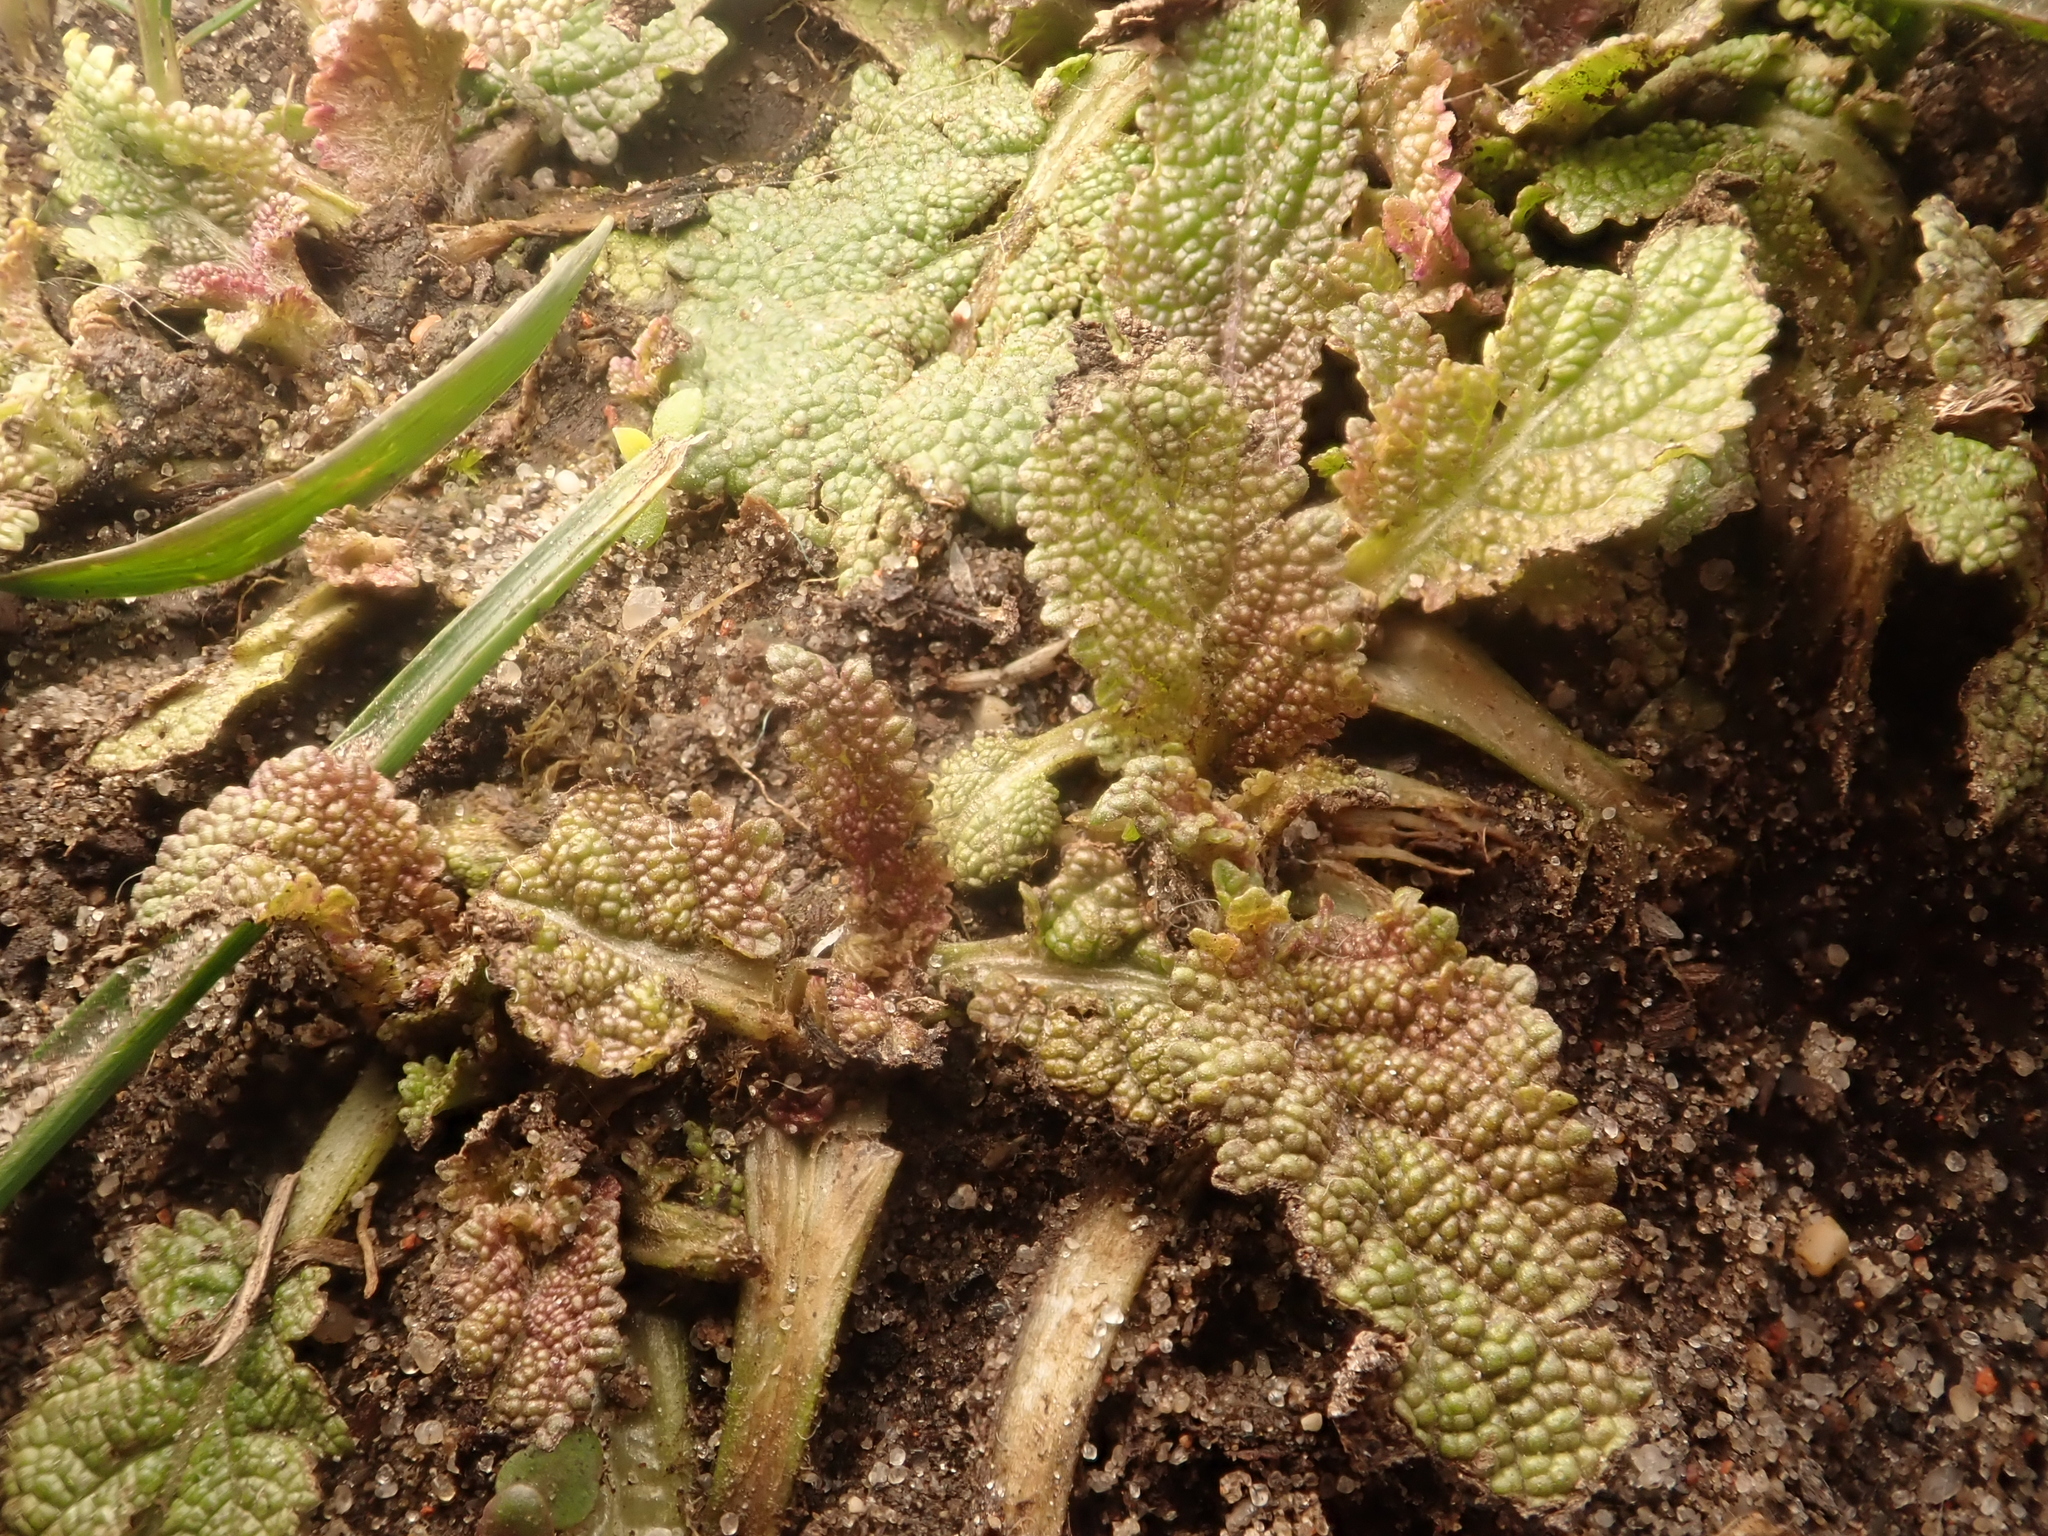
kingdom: Plantae
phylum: Tracheophyta
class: Magnoliopsida
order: Lamiales
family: Lamiaceae
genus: Salvia
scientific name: Salvia pratensis
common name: Meadow sage
